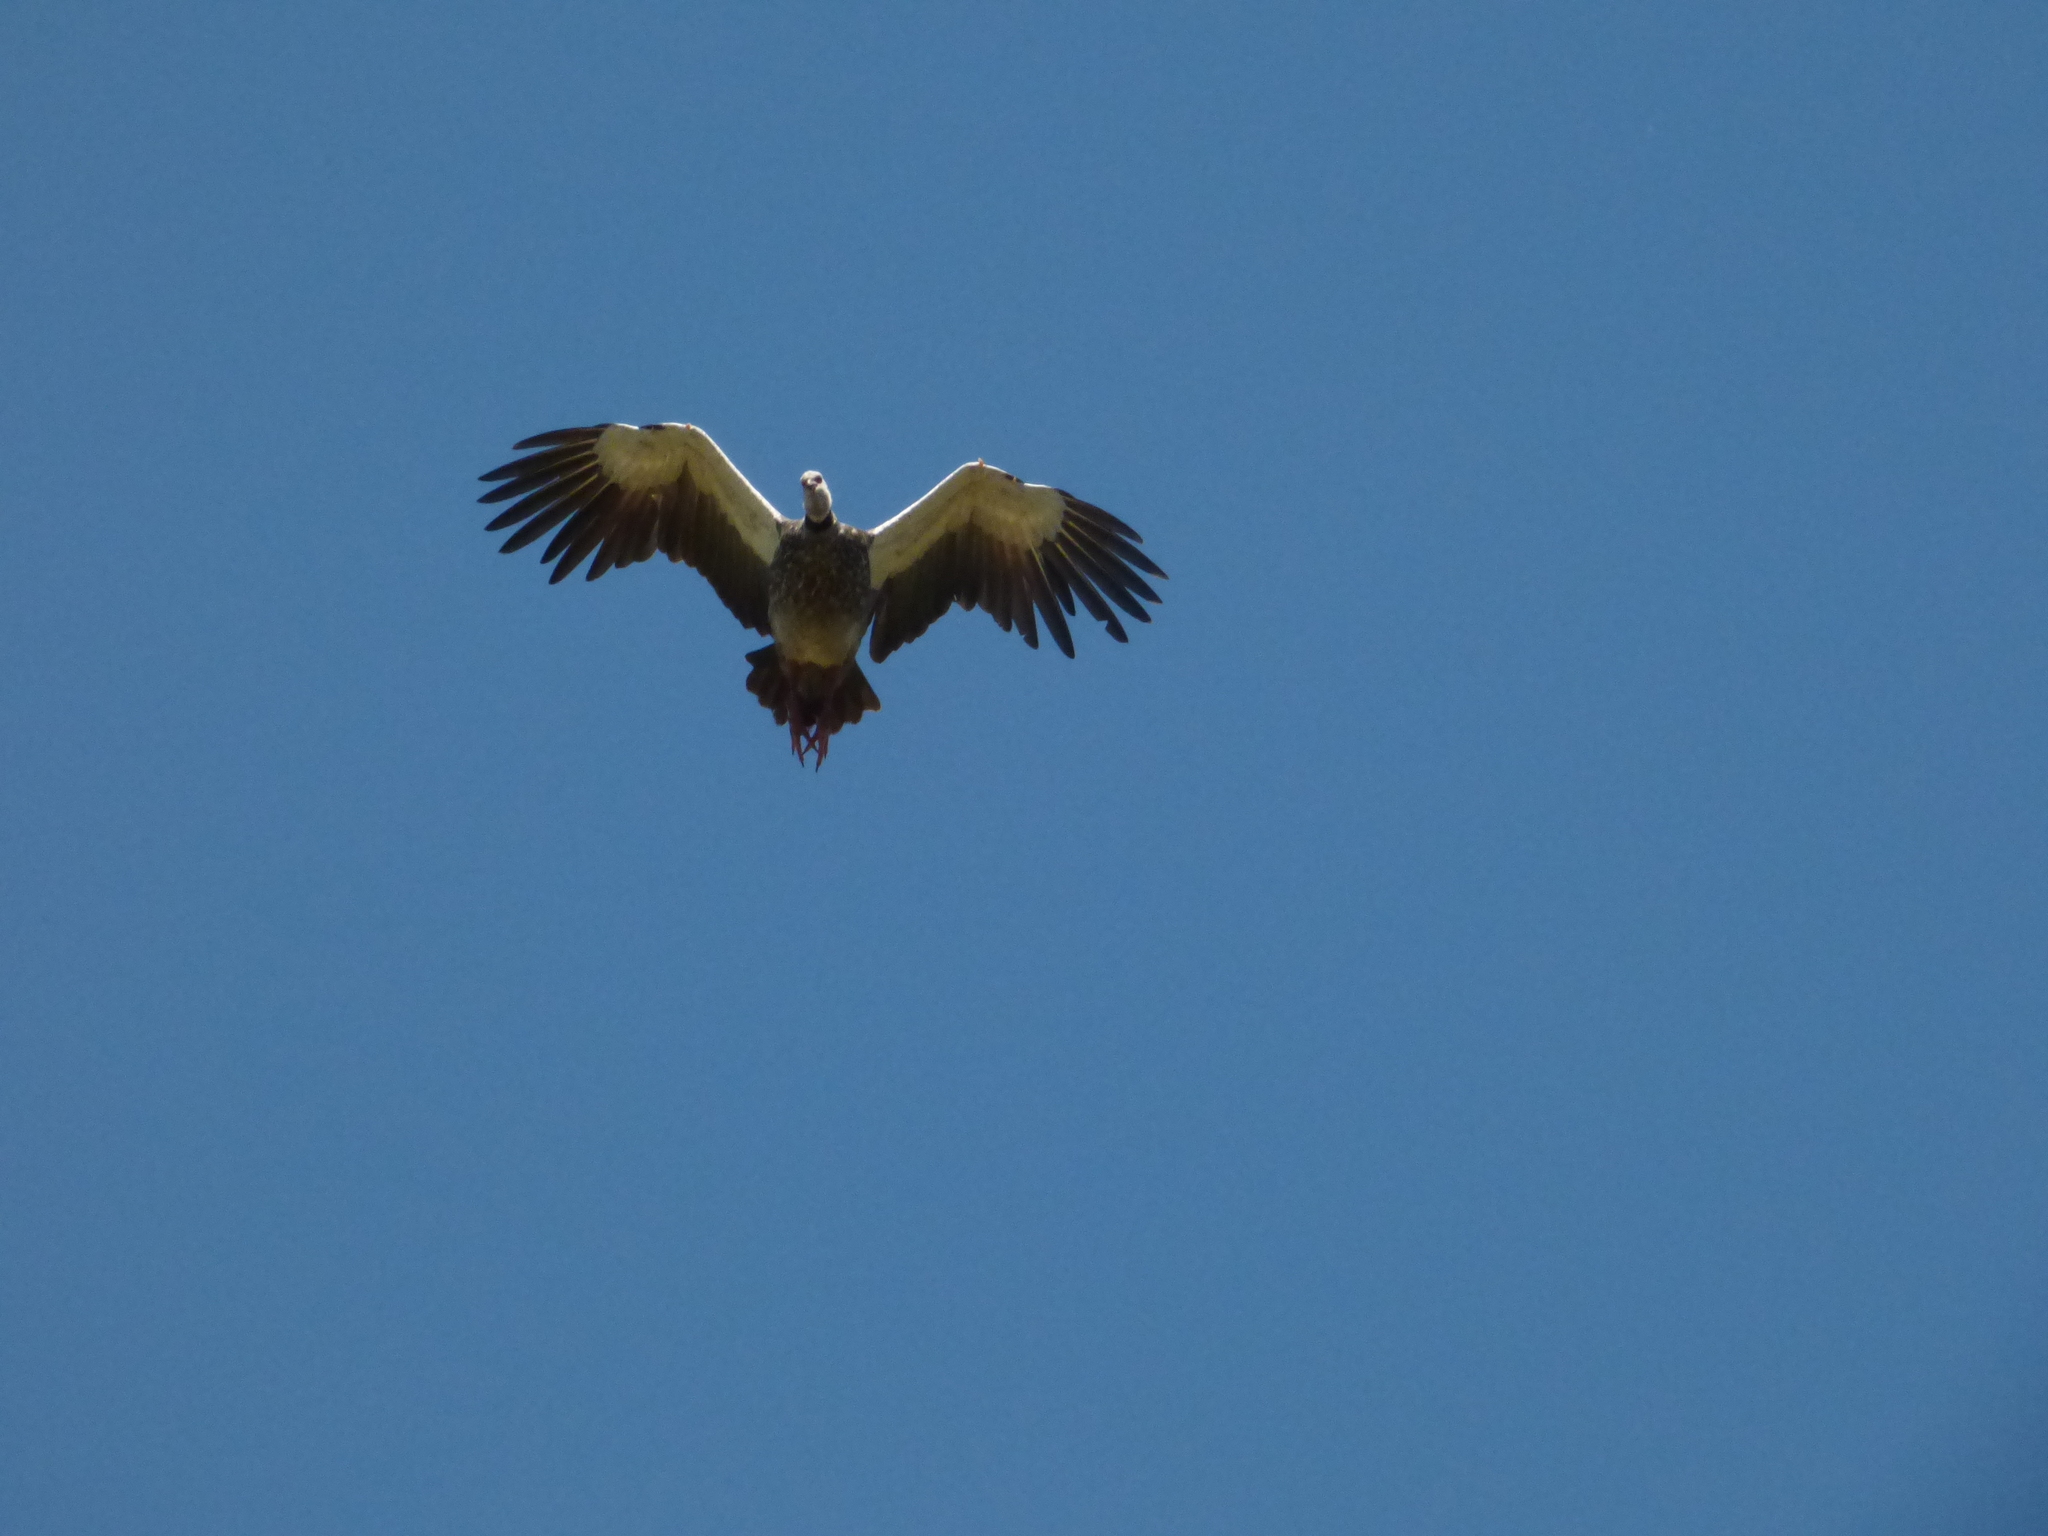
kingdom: Animalia
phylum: Chordata
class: Aves
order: Anseriformes
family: Anhimidae
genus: Chauna
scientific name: Chauna torquata
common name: Southern screamer
